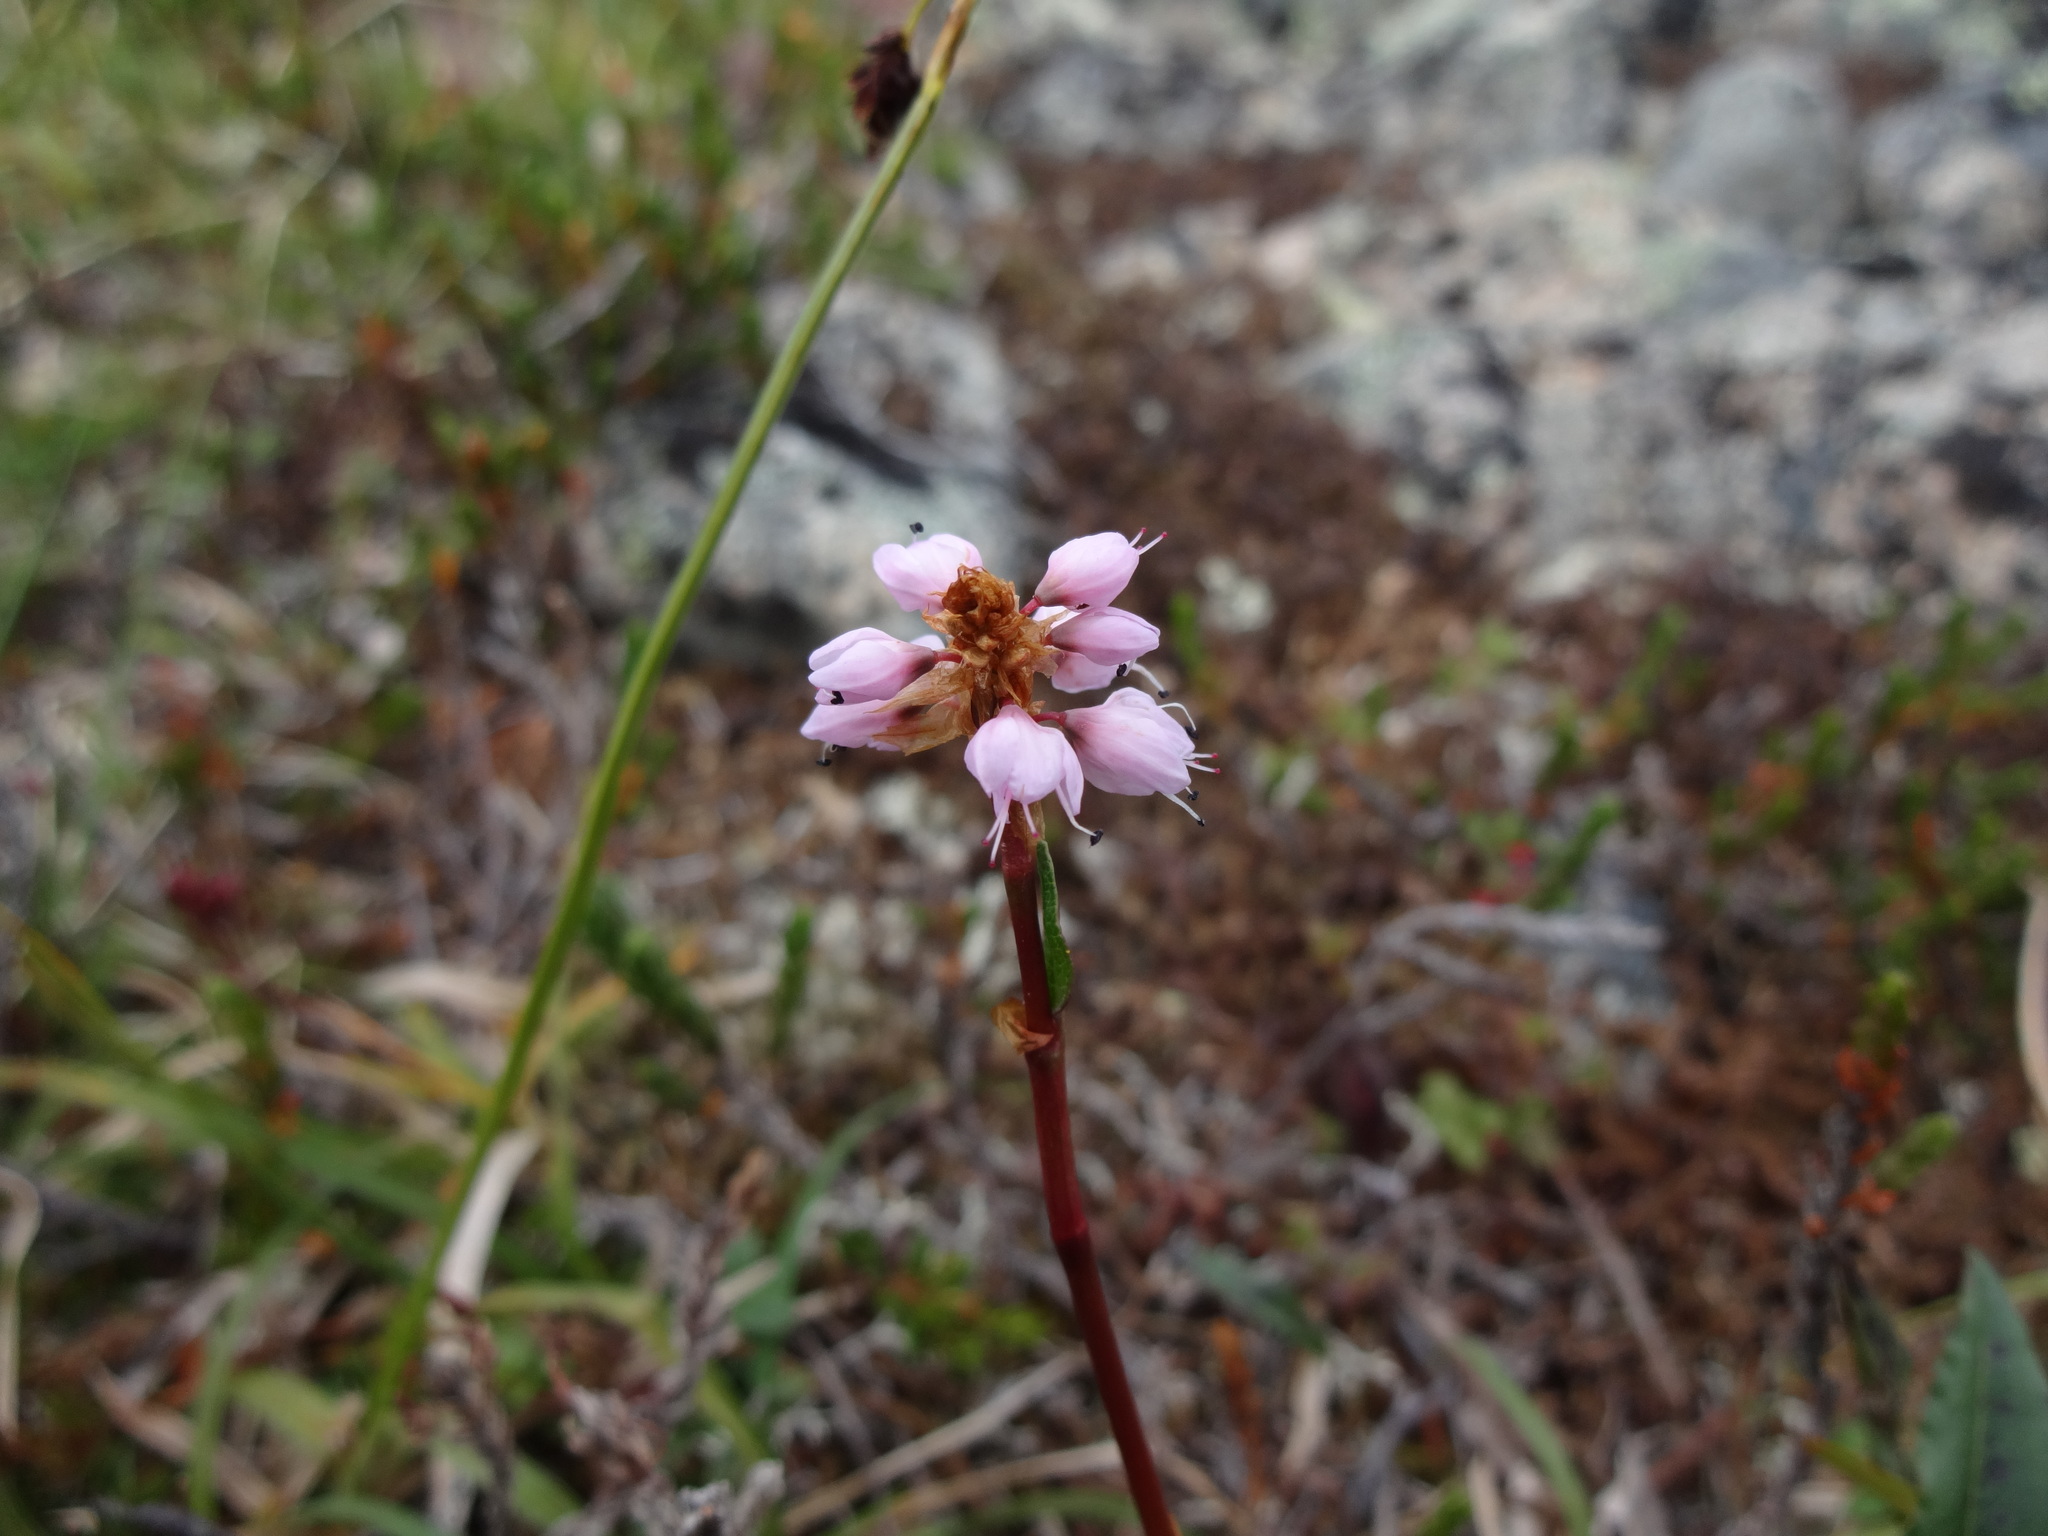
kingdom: Plantae
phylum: Tracheophyta
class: Magnoliopsida
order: Caryophyllales
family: Polygonaceae
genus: Bistorta
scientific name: Bistorta plumosa
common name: Meadow bistort
